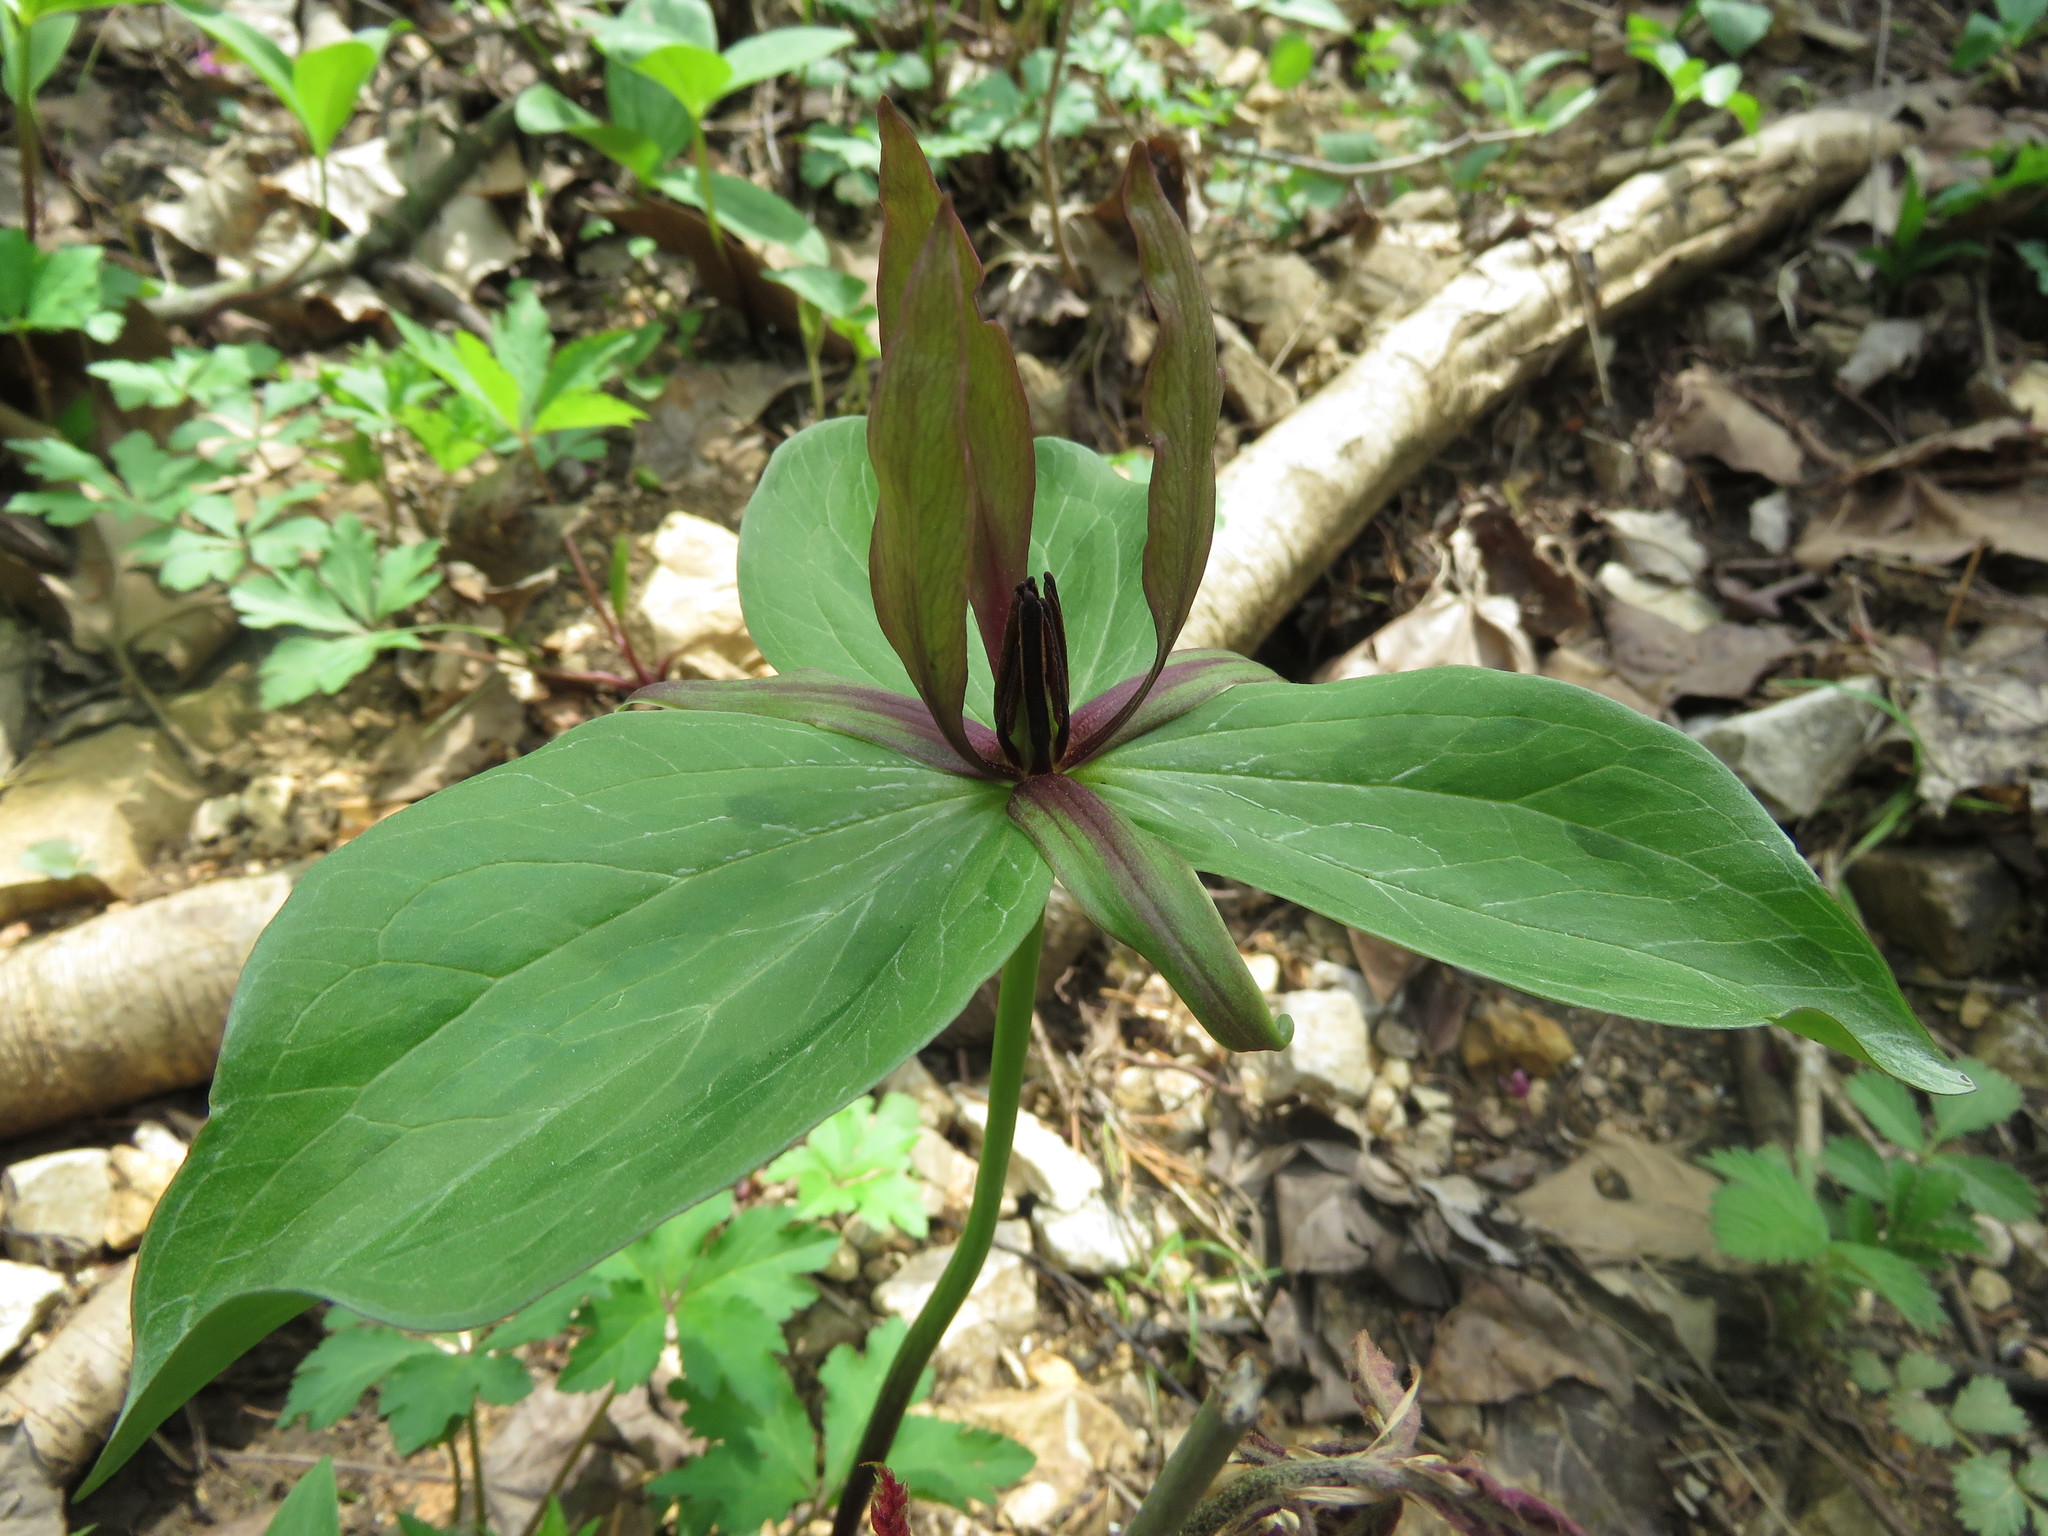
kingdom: Plantae
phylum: Tracheophyta
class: Liliopsida
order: Liliales
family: Melanthiaceae
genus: Trillium
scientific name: Trillium viride
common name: Green trillium
